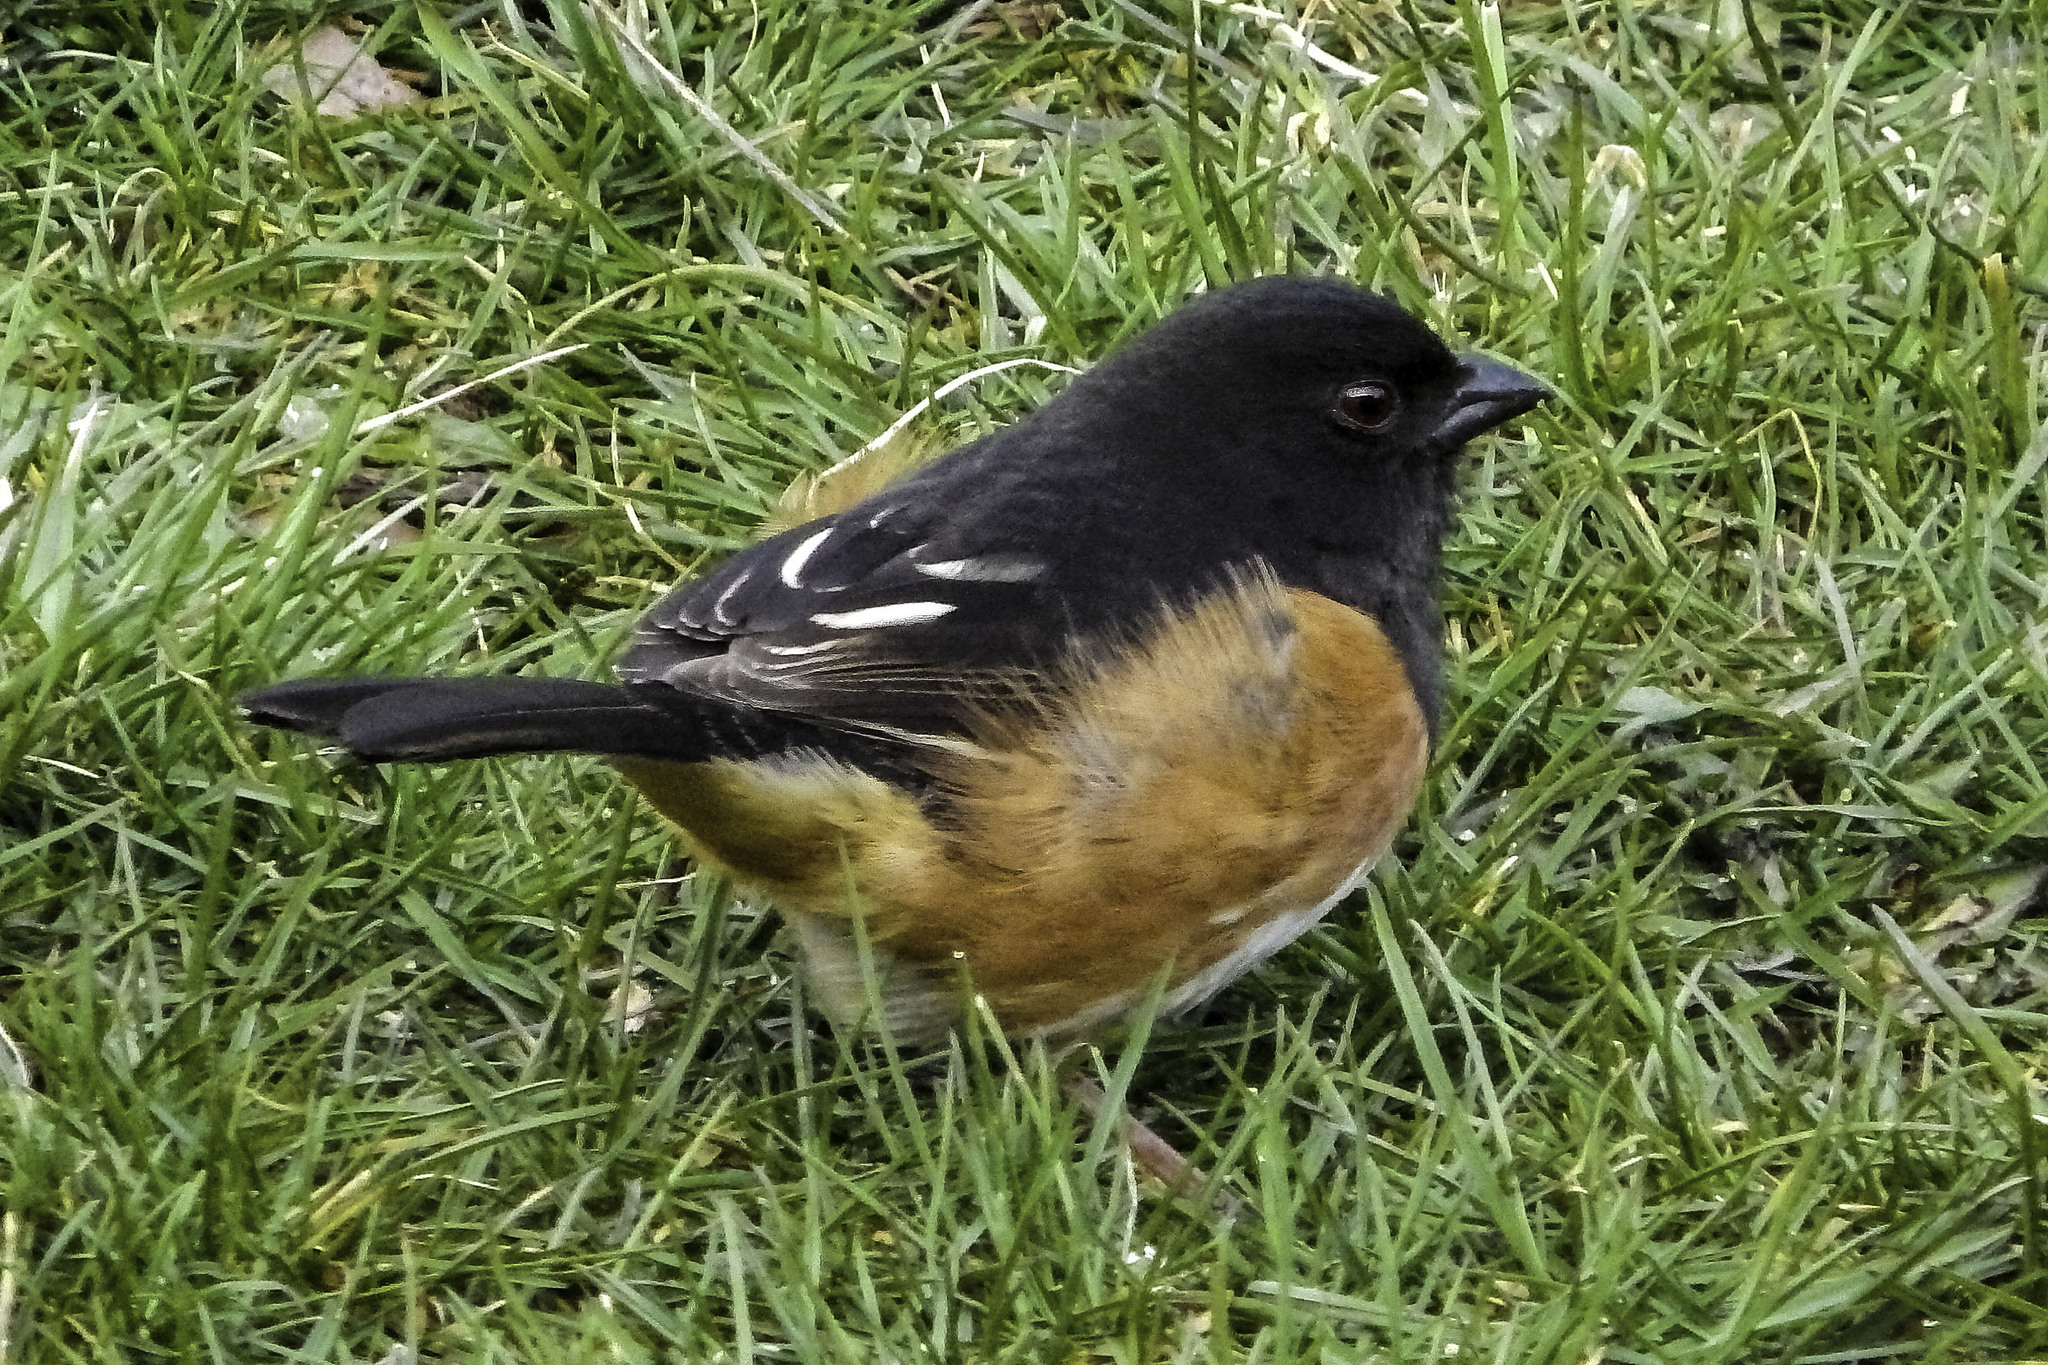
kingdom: Animalia
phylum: Chordata
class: Aves
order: Passeriformes
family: Passerellidae
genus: Pipilo
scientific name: Pipilo erythrophthalmus
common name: Eastern towhee
